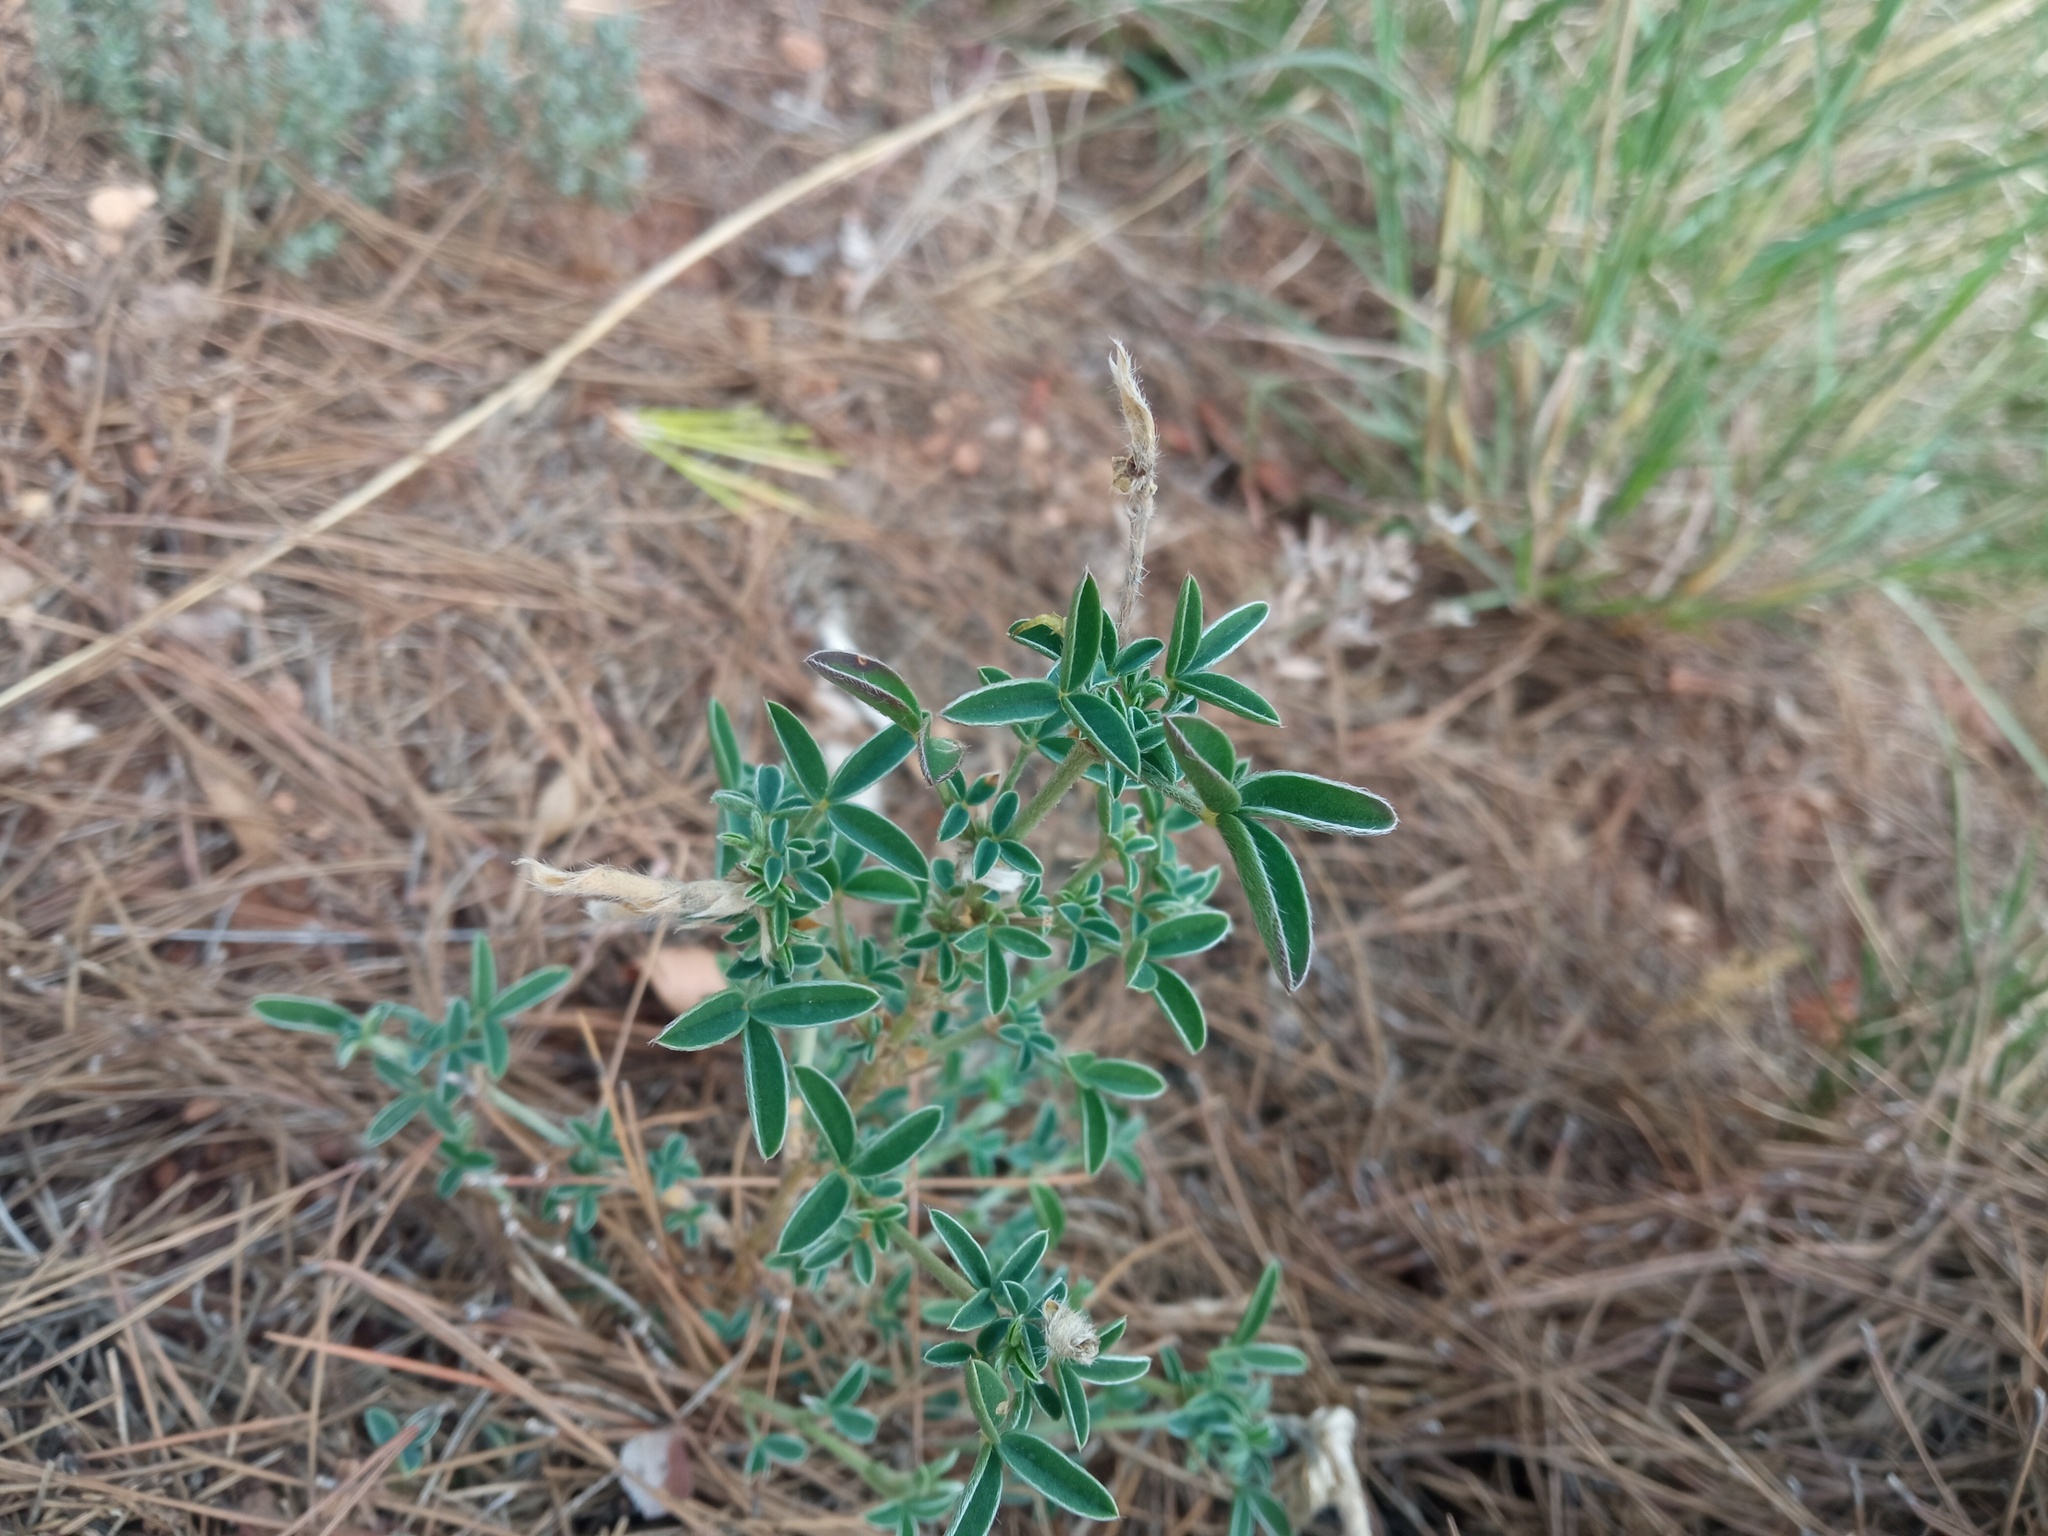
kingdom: Plantae
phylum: Tracheophyta
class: Magnoliopsida
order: Fabales
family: Fabaceae
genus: Argyrolobium
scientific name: Argyrolobium zanonii
